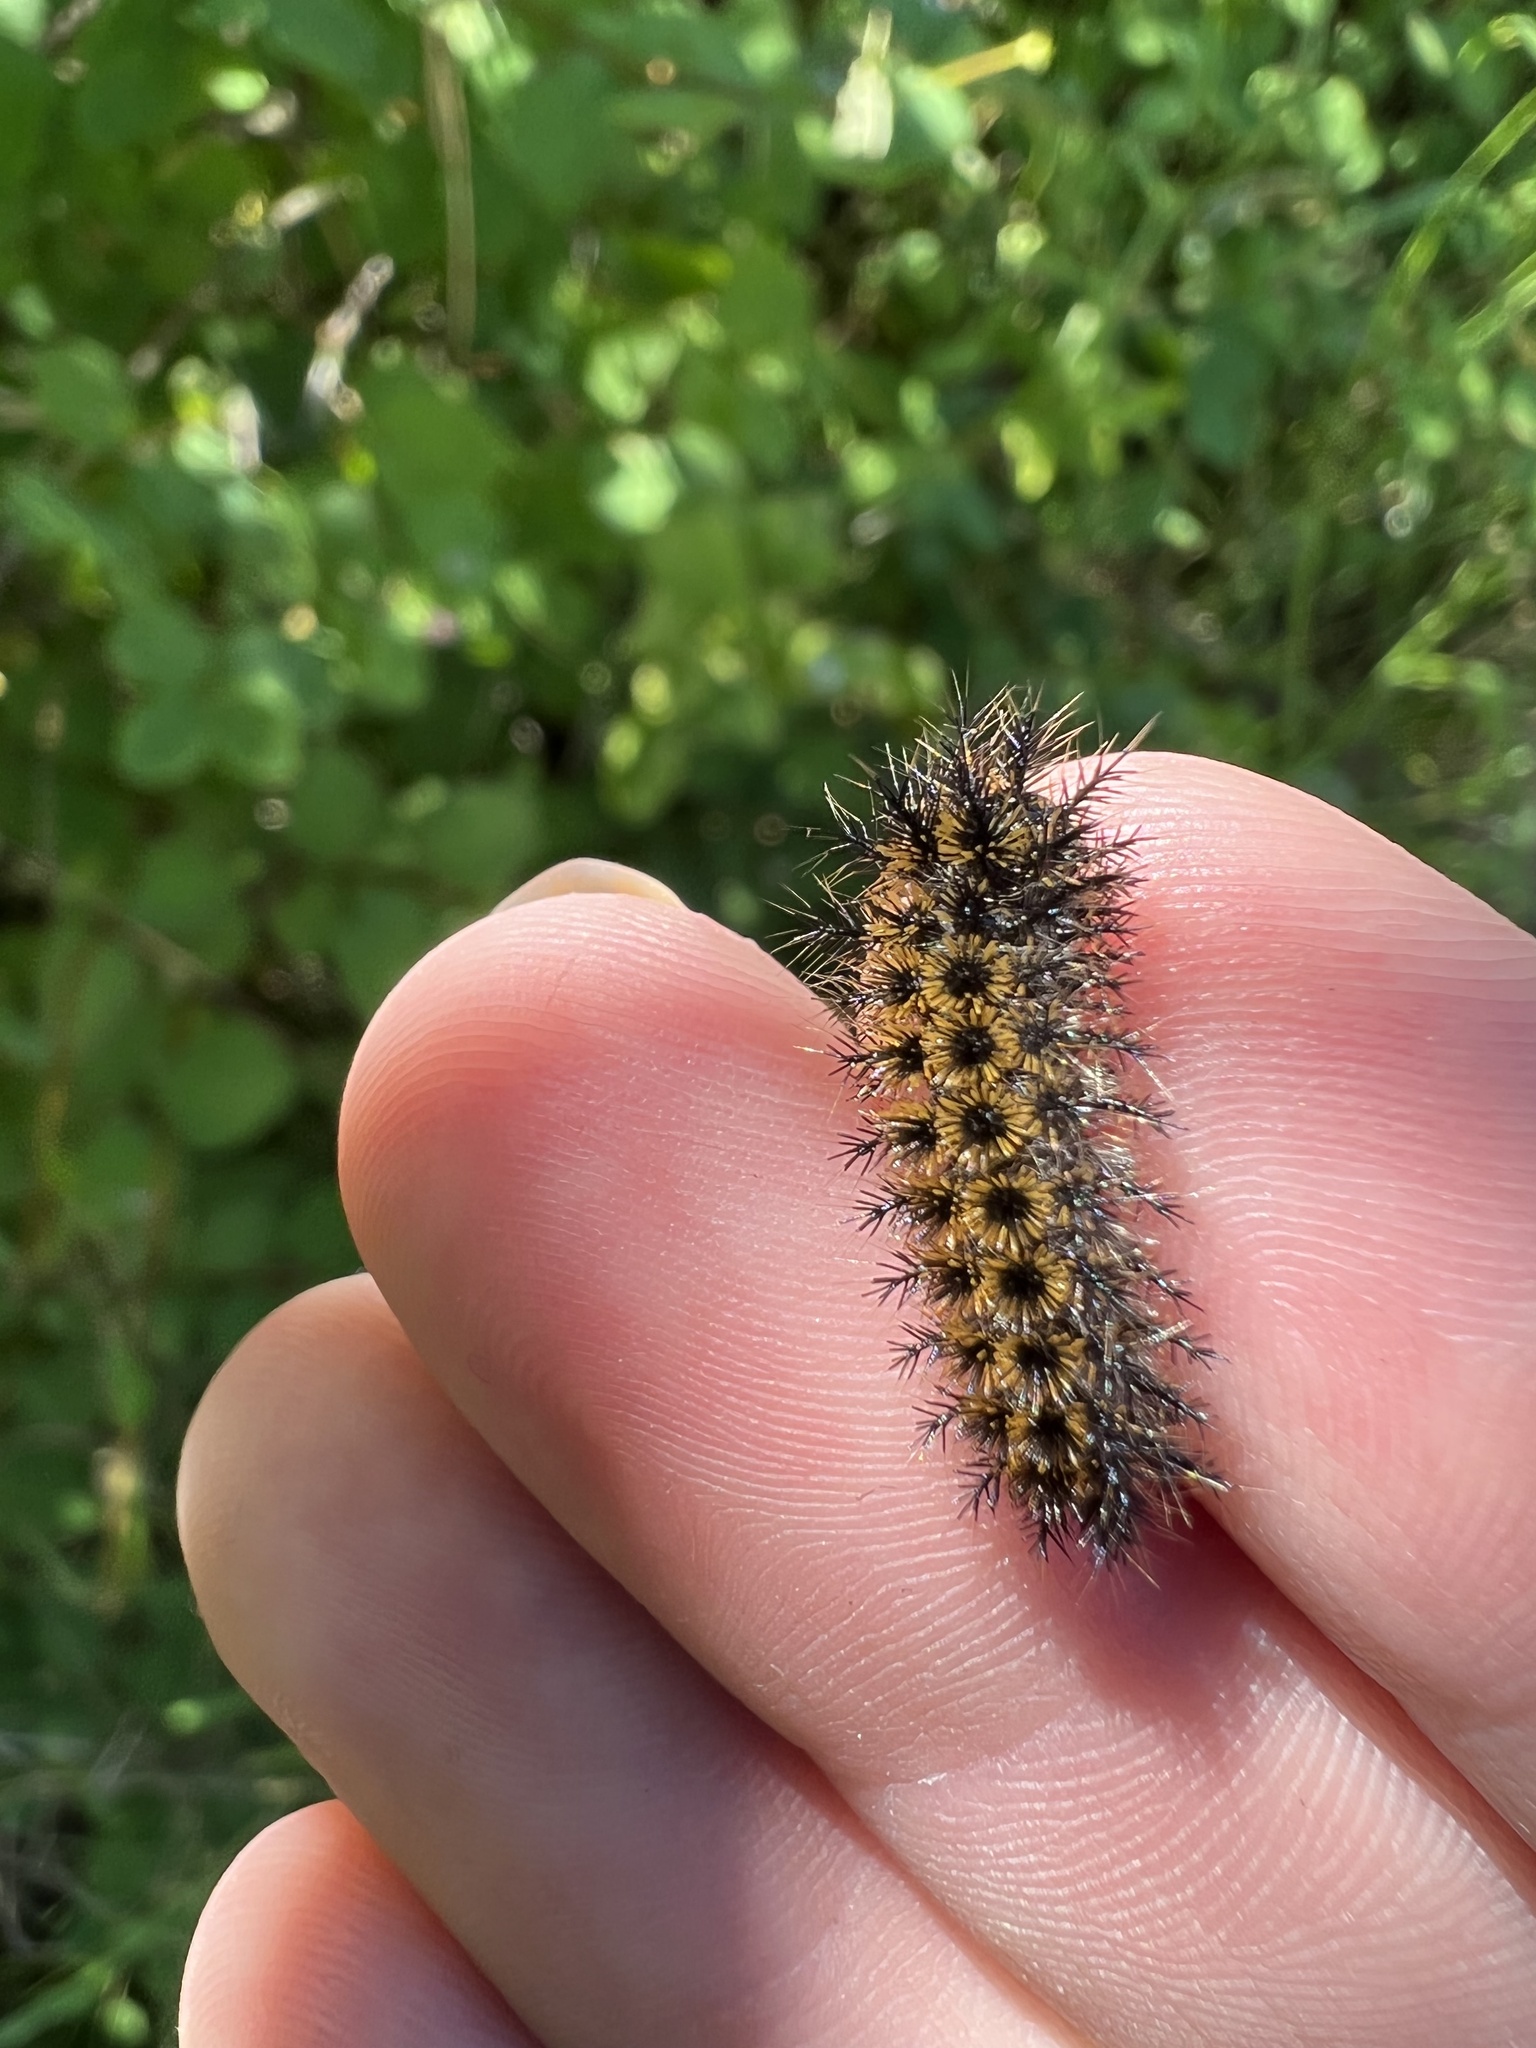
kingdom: Animalia
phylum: Arthropoda
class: Insecta
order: Lepidoptera
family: Saturniidae
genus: Hemileuca
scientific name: Hemileuca eglanterina
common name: Western sheepmoth
